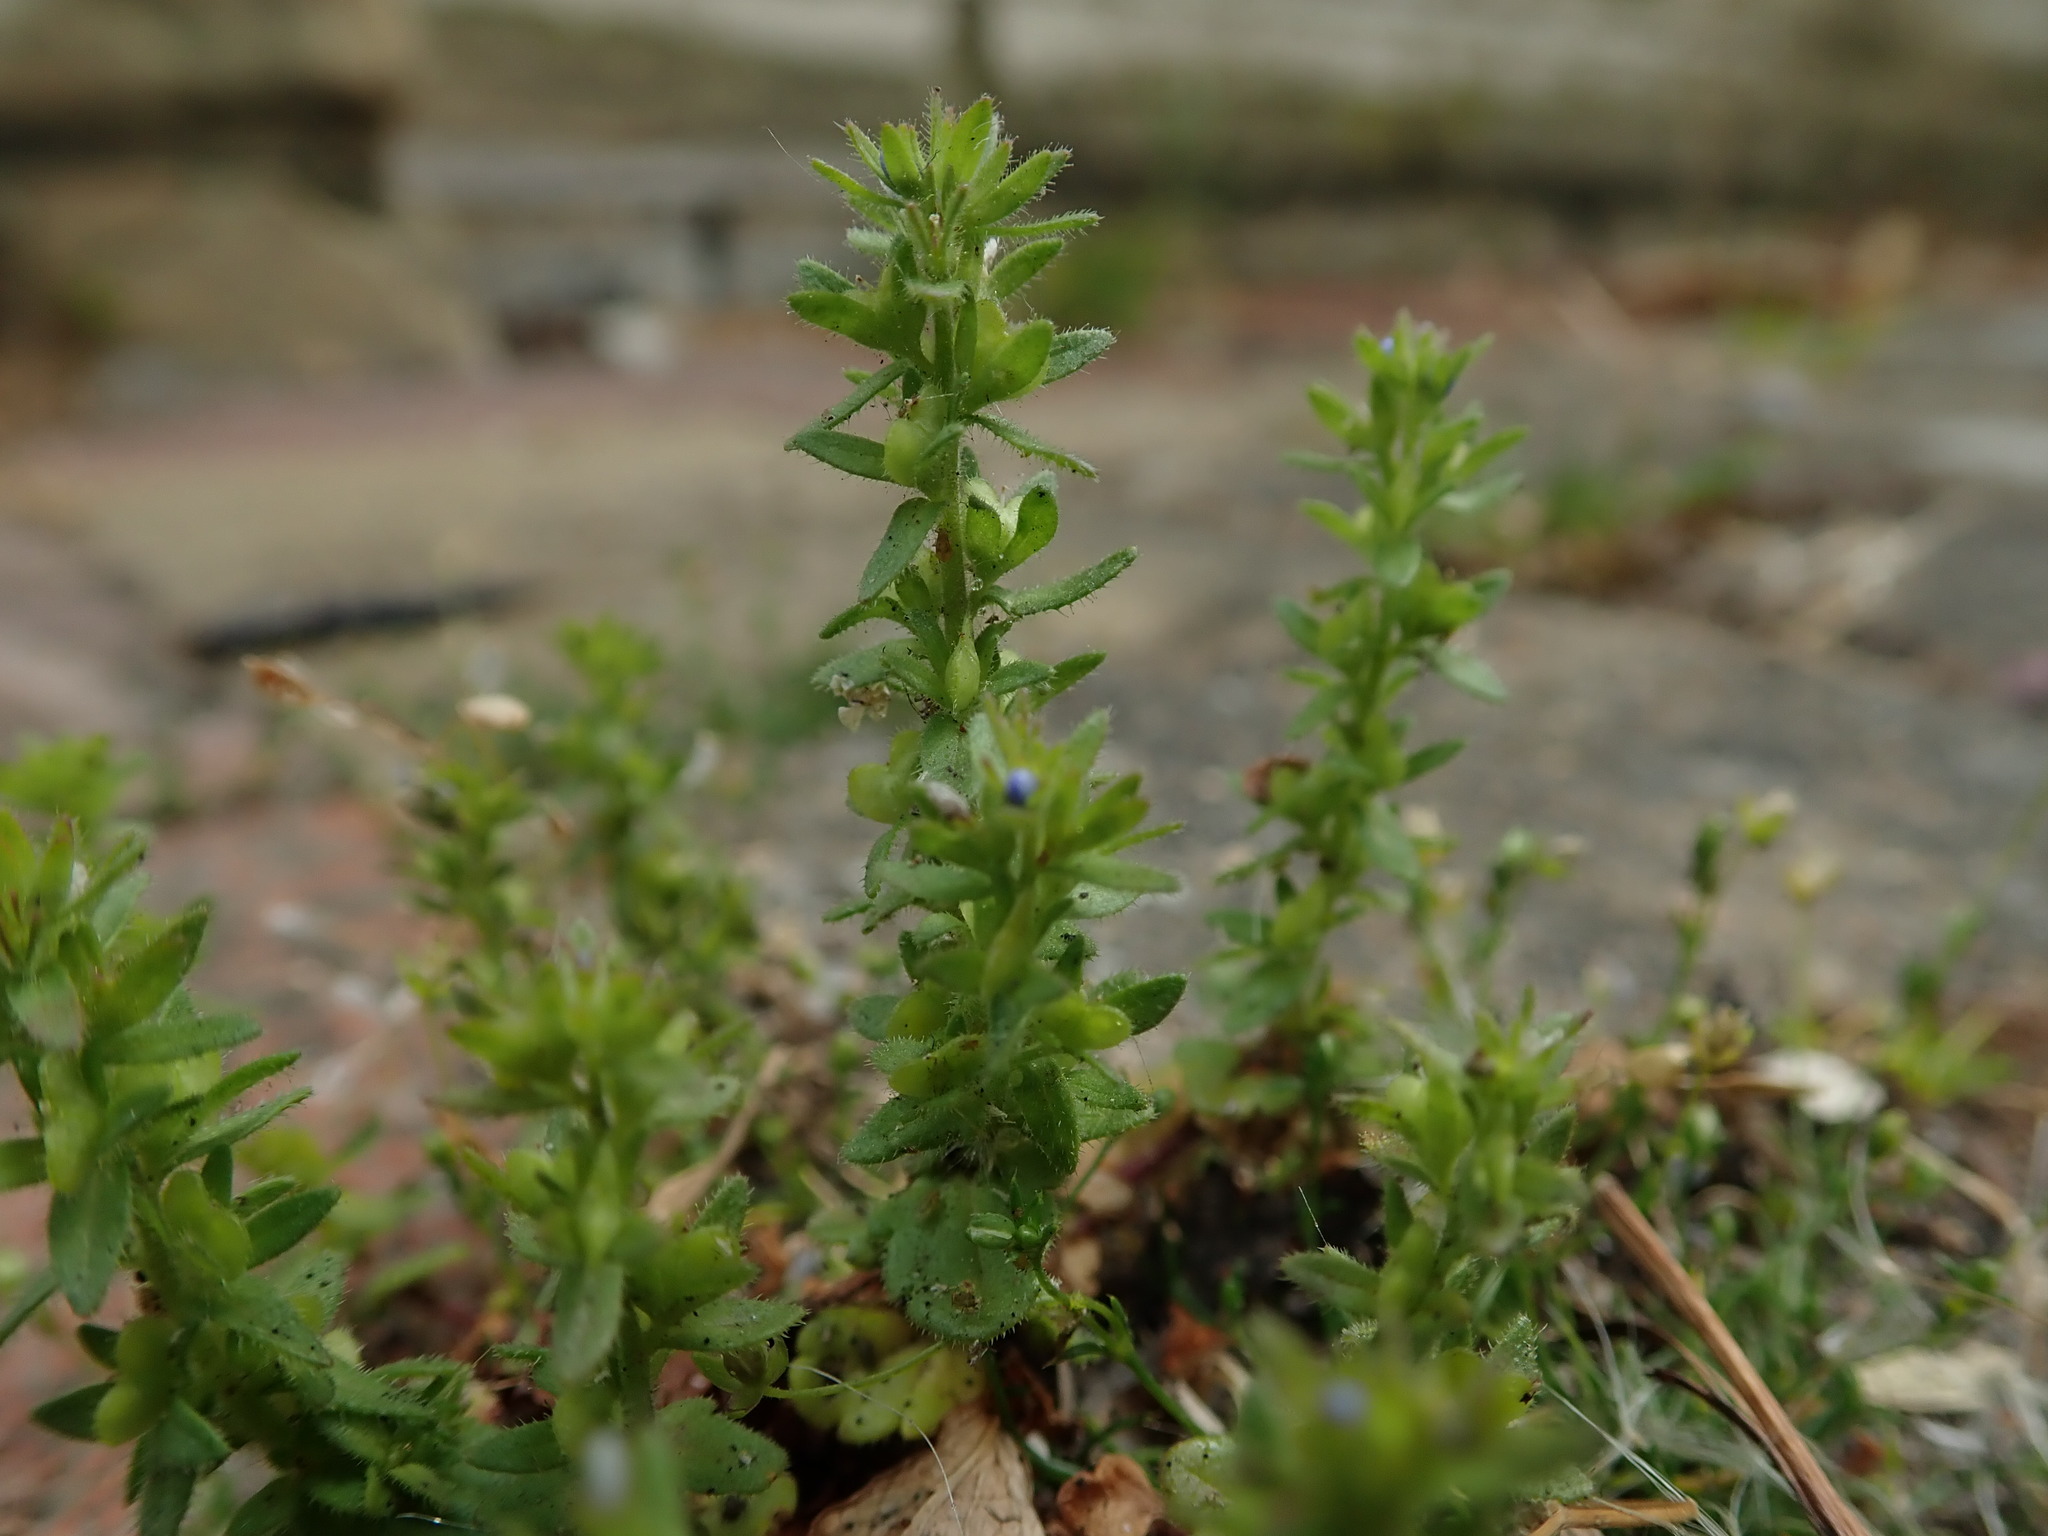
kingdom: Plantae
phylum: Tracheophyta
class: Magnoliopsida
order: Lamiales
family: Plantaginaceae
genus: Veronica
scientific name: Veronica arvensis
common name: Corn speedwell
